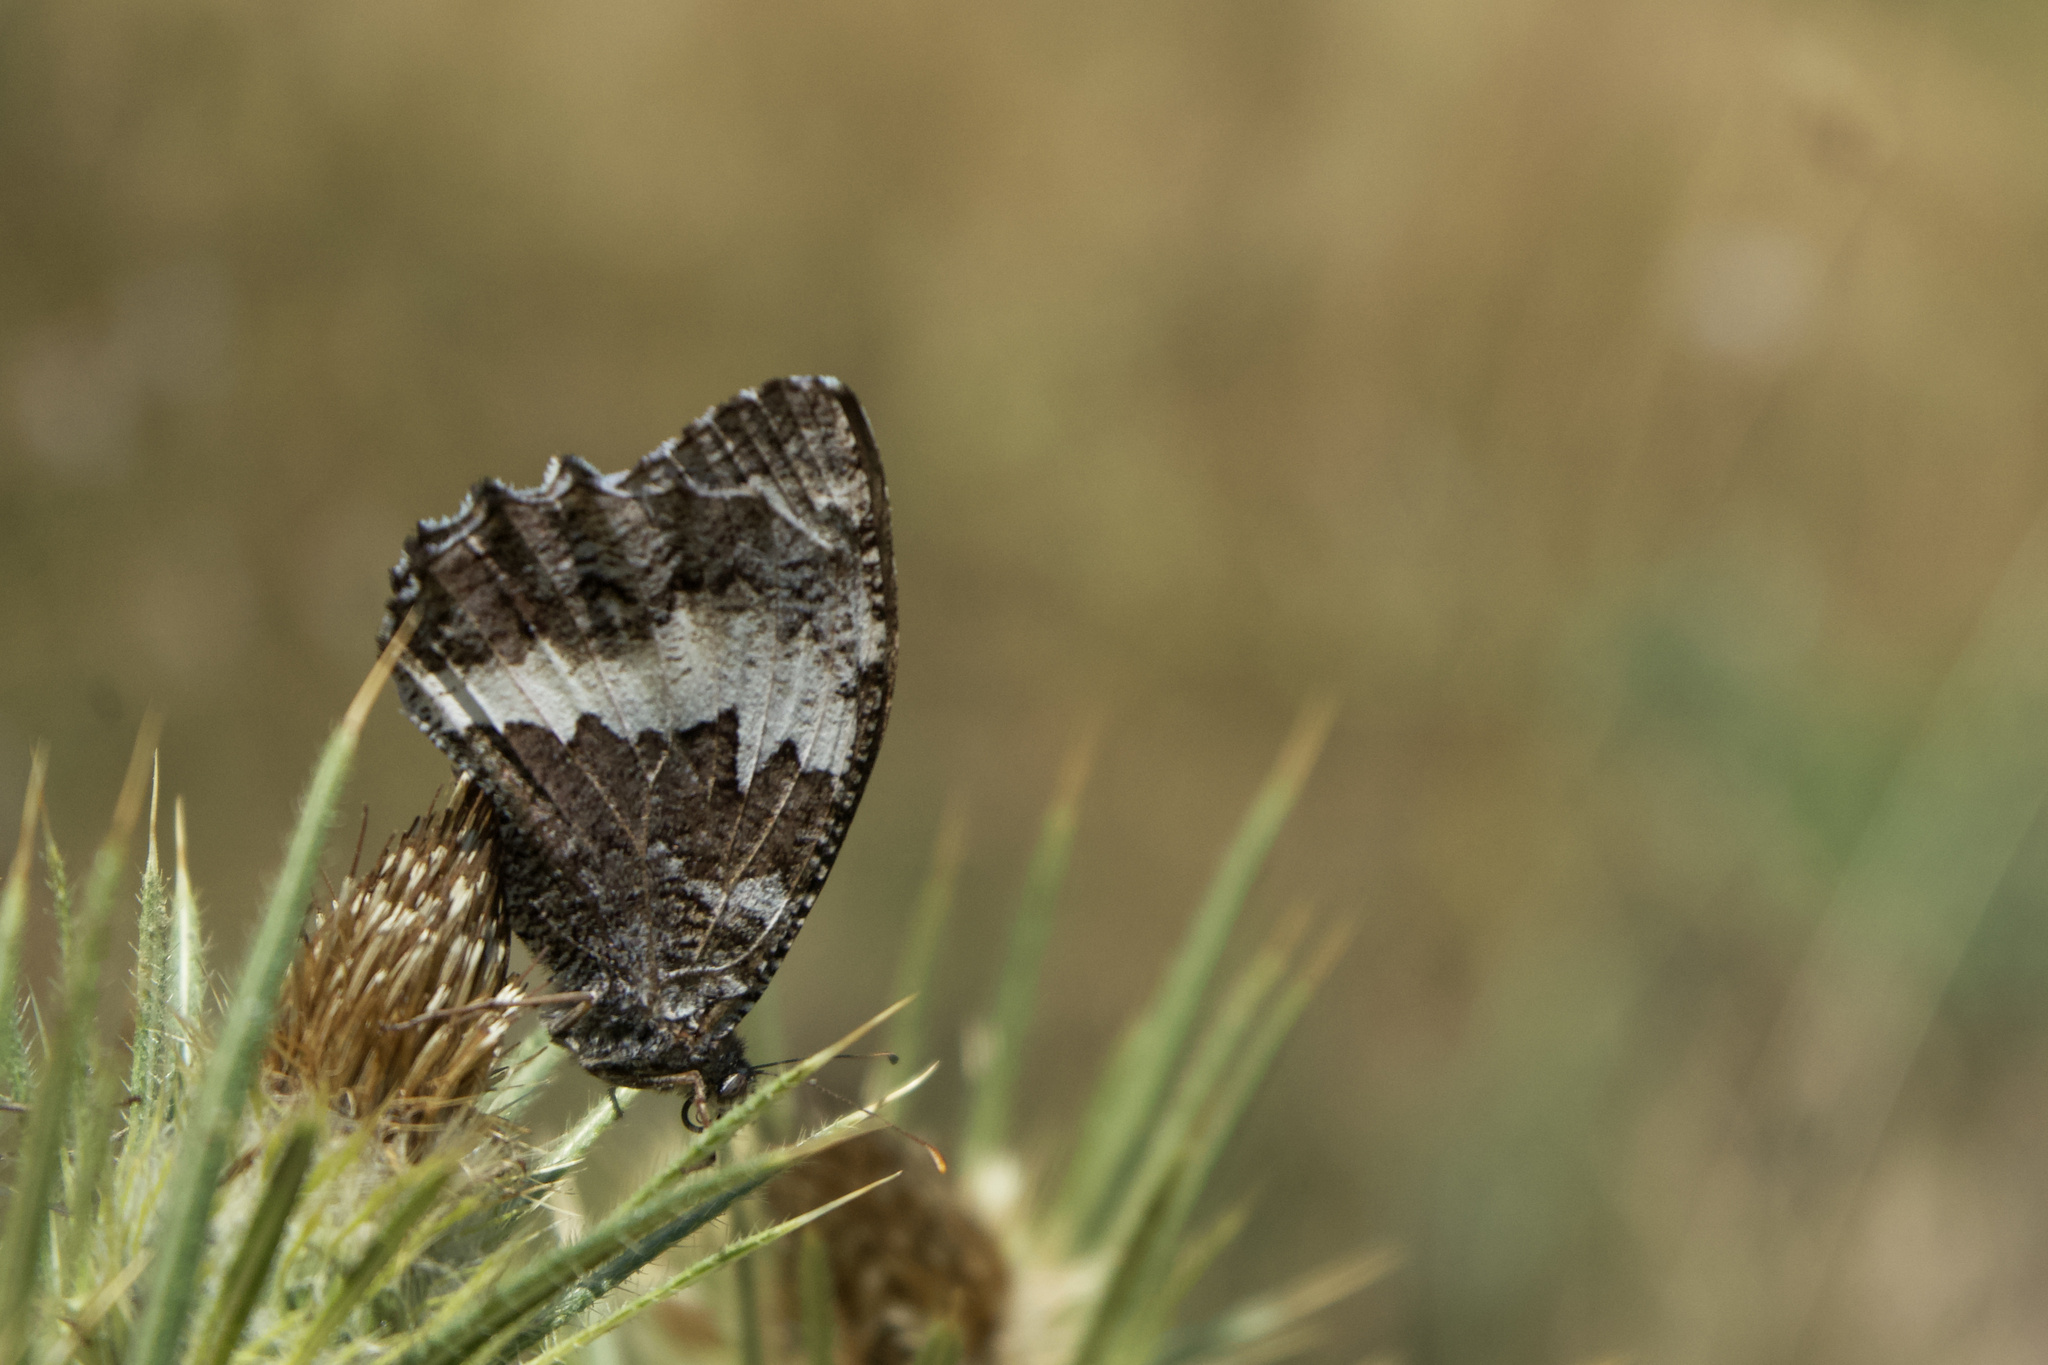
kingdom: Animalia
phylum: Arthropoda
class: Insecta
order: Lepidoptera
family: Lycaenidae
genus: Loweia
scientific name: Loweia tityrus
